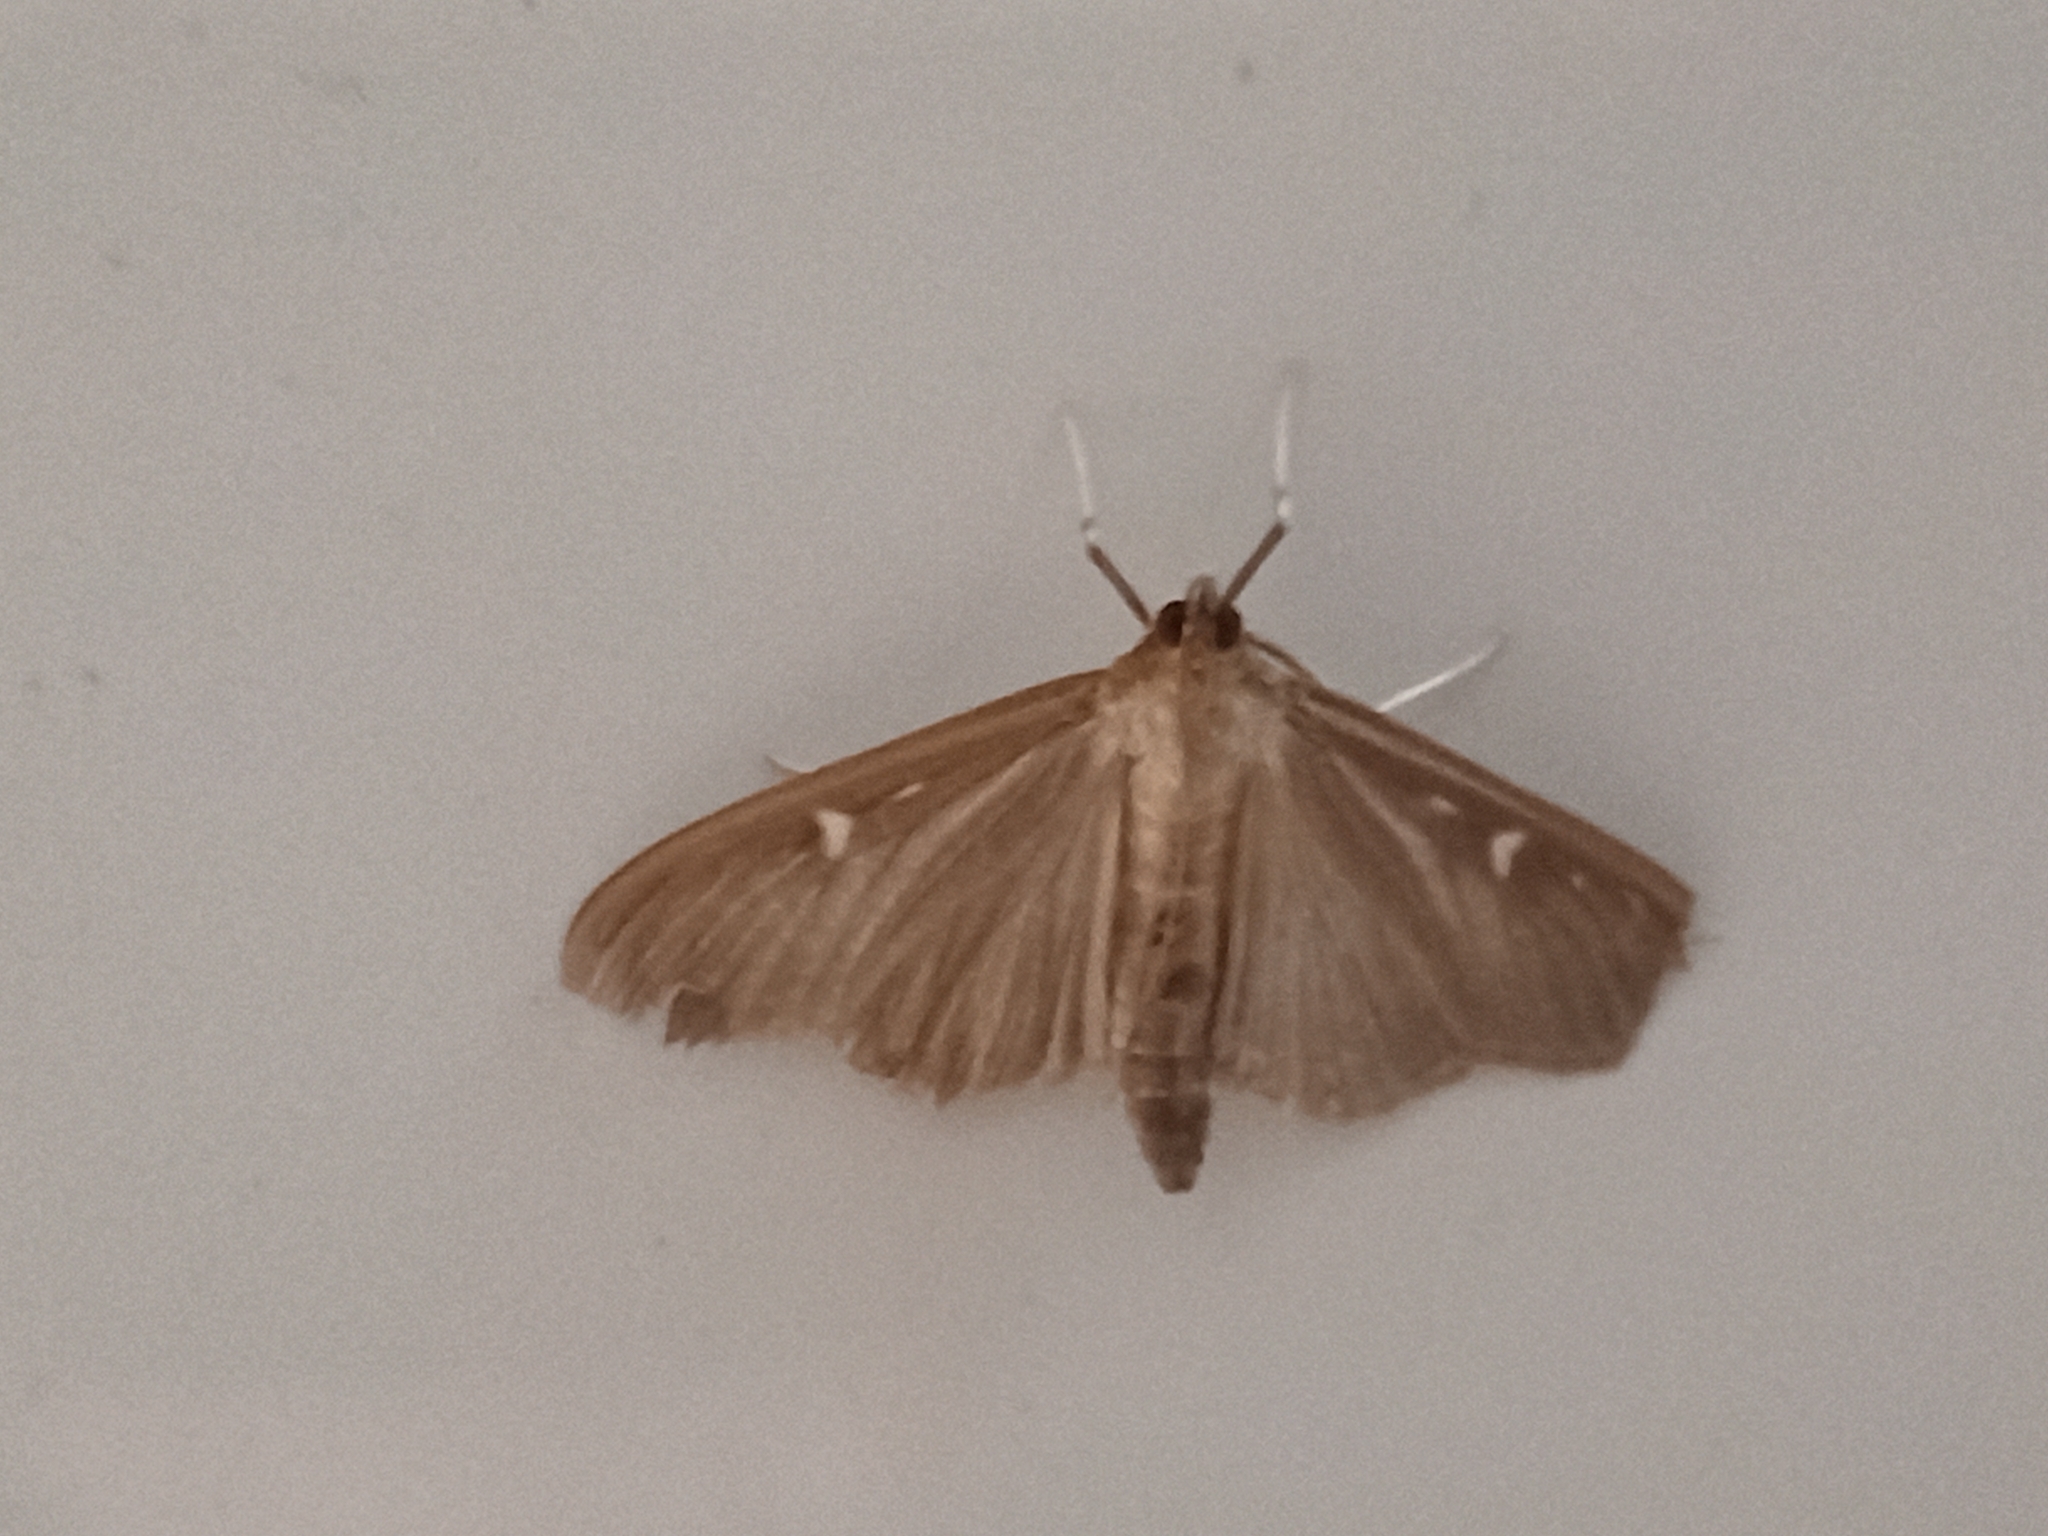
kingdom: Animalia
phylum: Arthropoda
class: Insecta
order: Lepidoptera
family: Crambidae
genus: Cydalima
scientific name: Cydalima perspectalis
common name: Box tree moth
